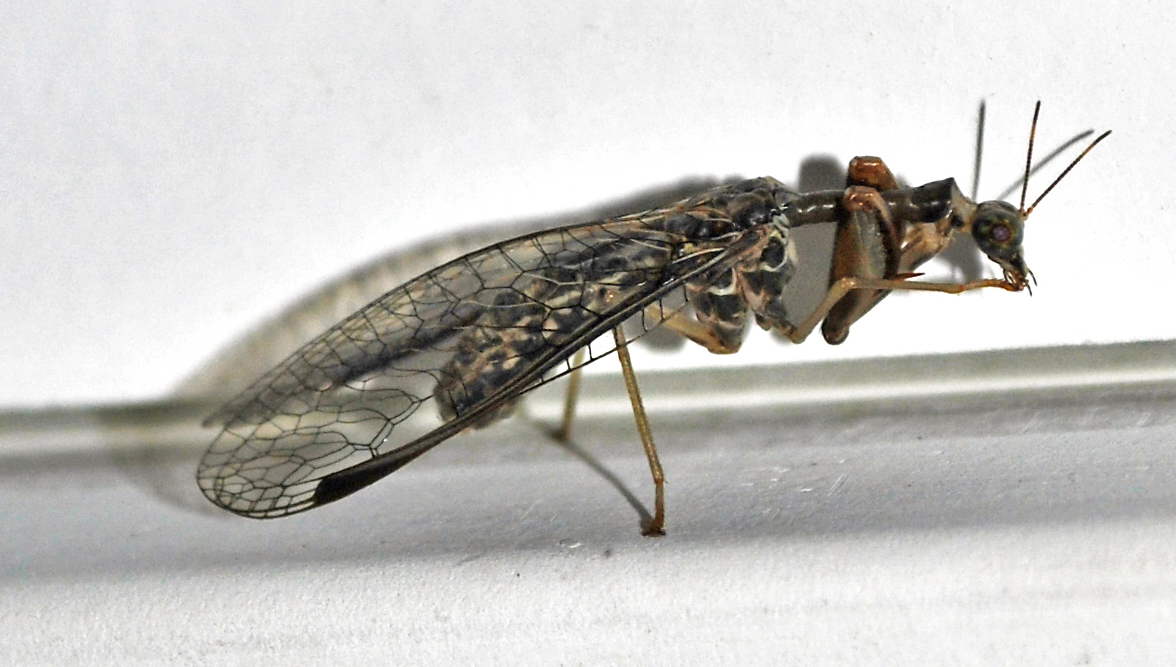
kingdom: Animalia
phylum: Arthropoda
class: Insecta
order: Neuroptera
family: Mantispidae
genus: Dicromantispa
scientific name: Dicromantispa sayi
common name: Say's mantidfly
